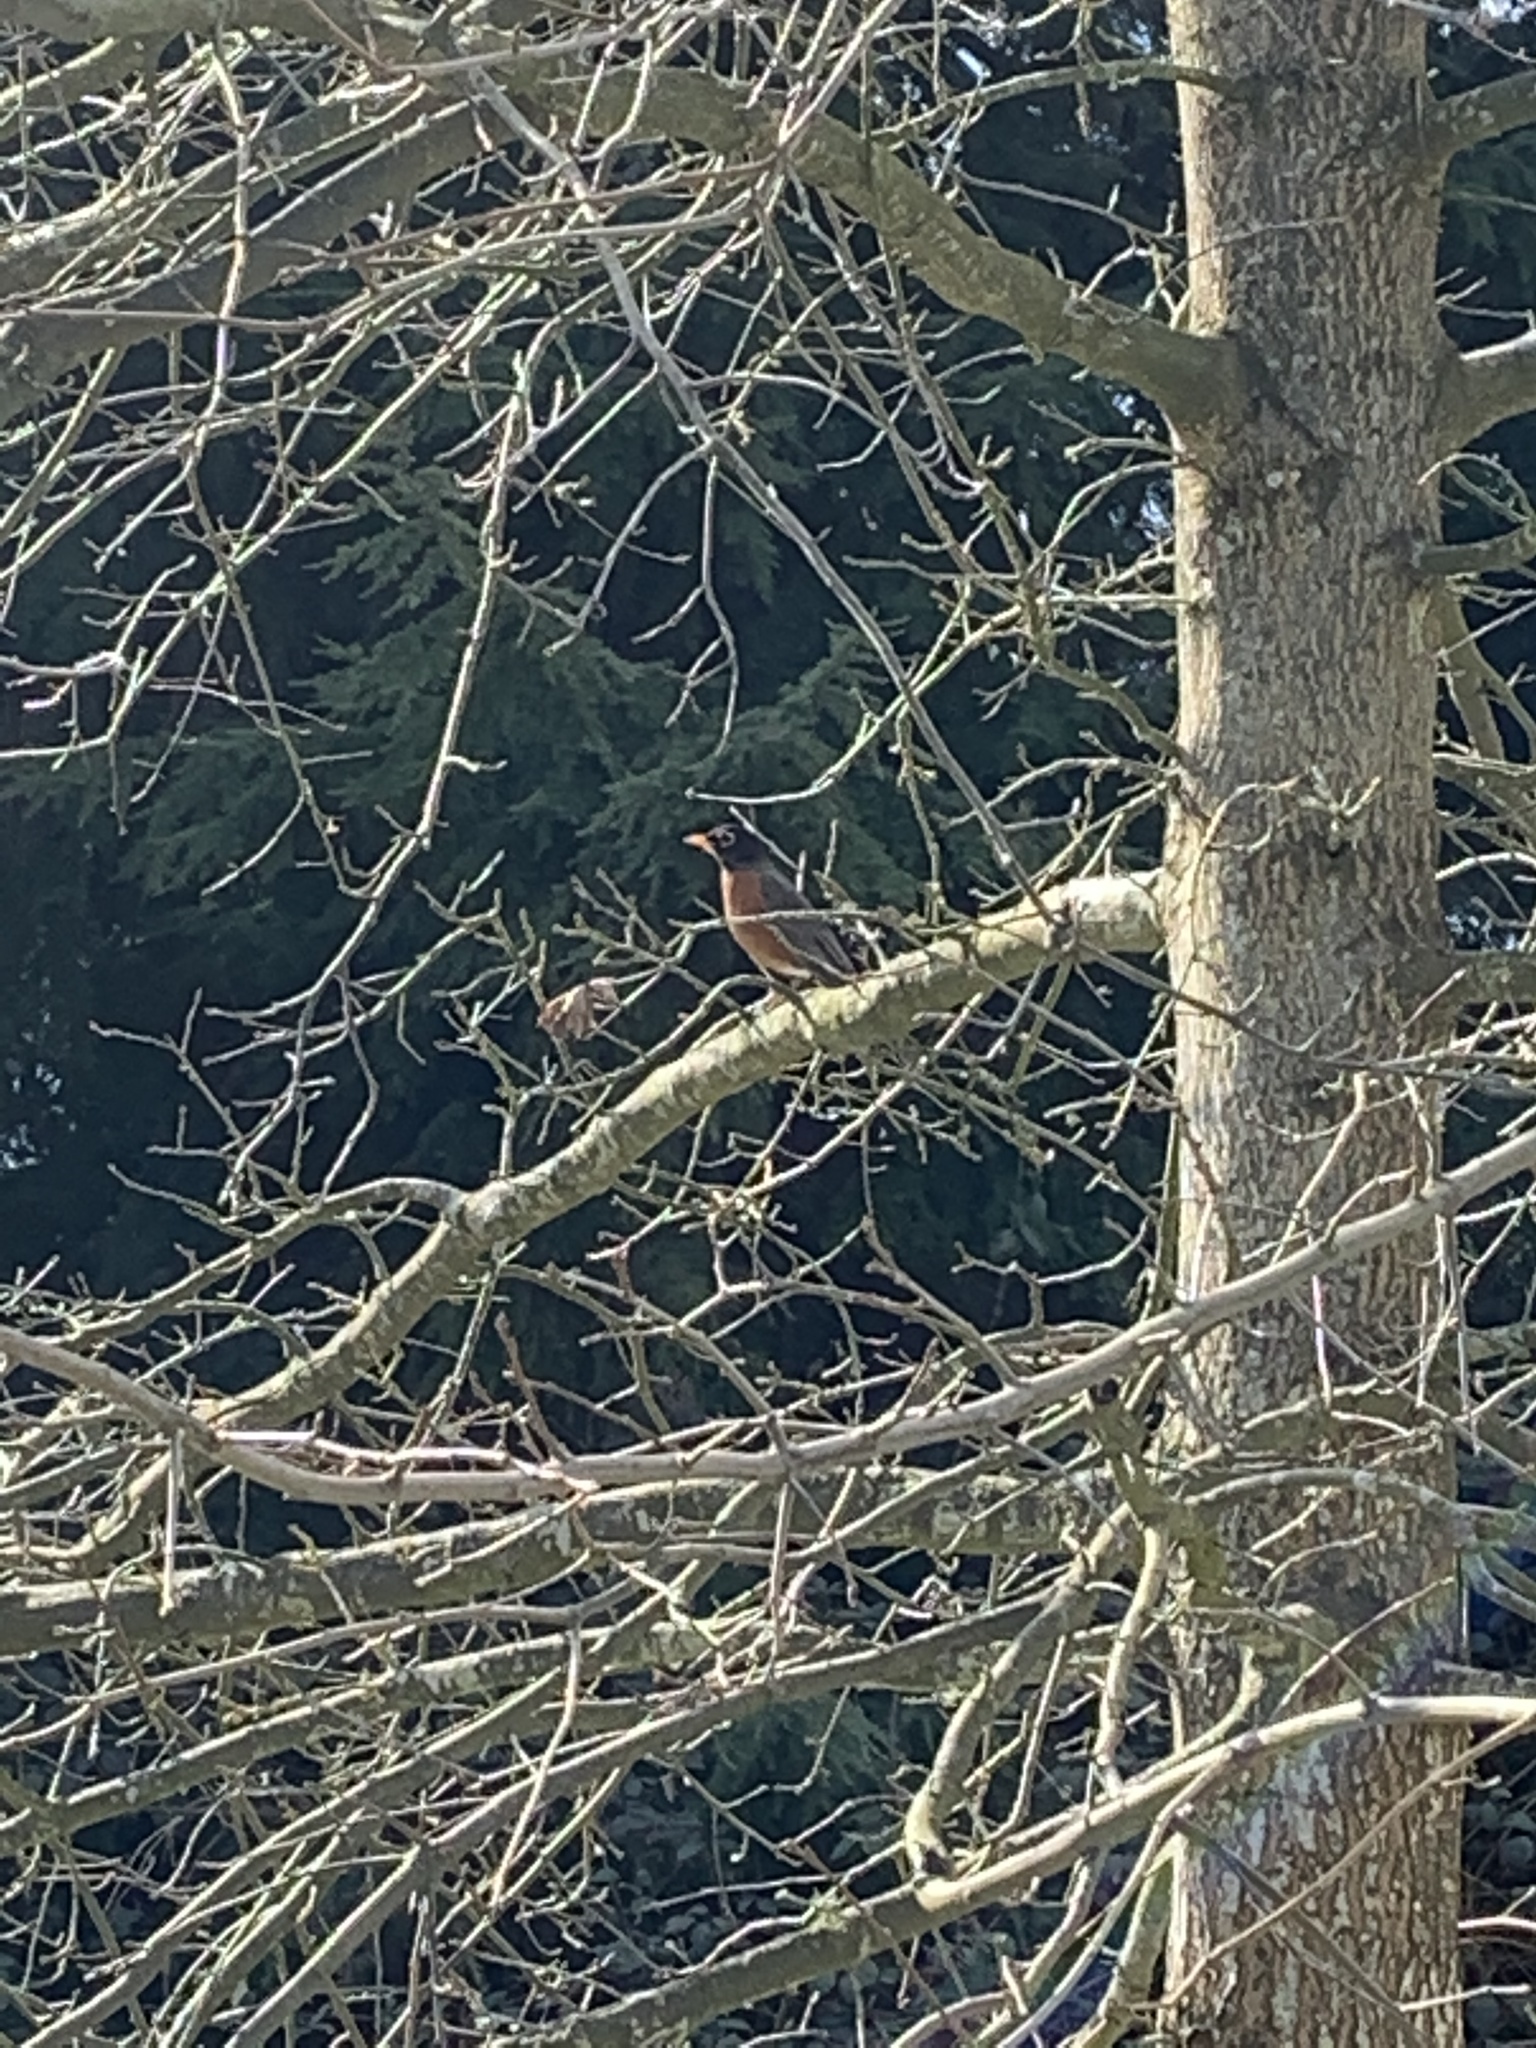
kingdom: Animalia
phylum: Chordata
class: Aves
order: Passeriformes
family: Turdidae
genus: Turdus
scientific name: Turdus migratorius
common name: American robin
